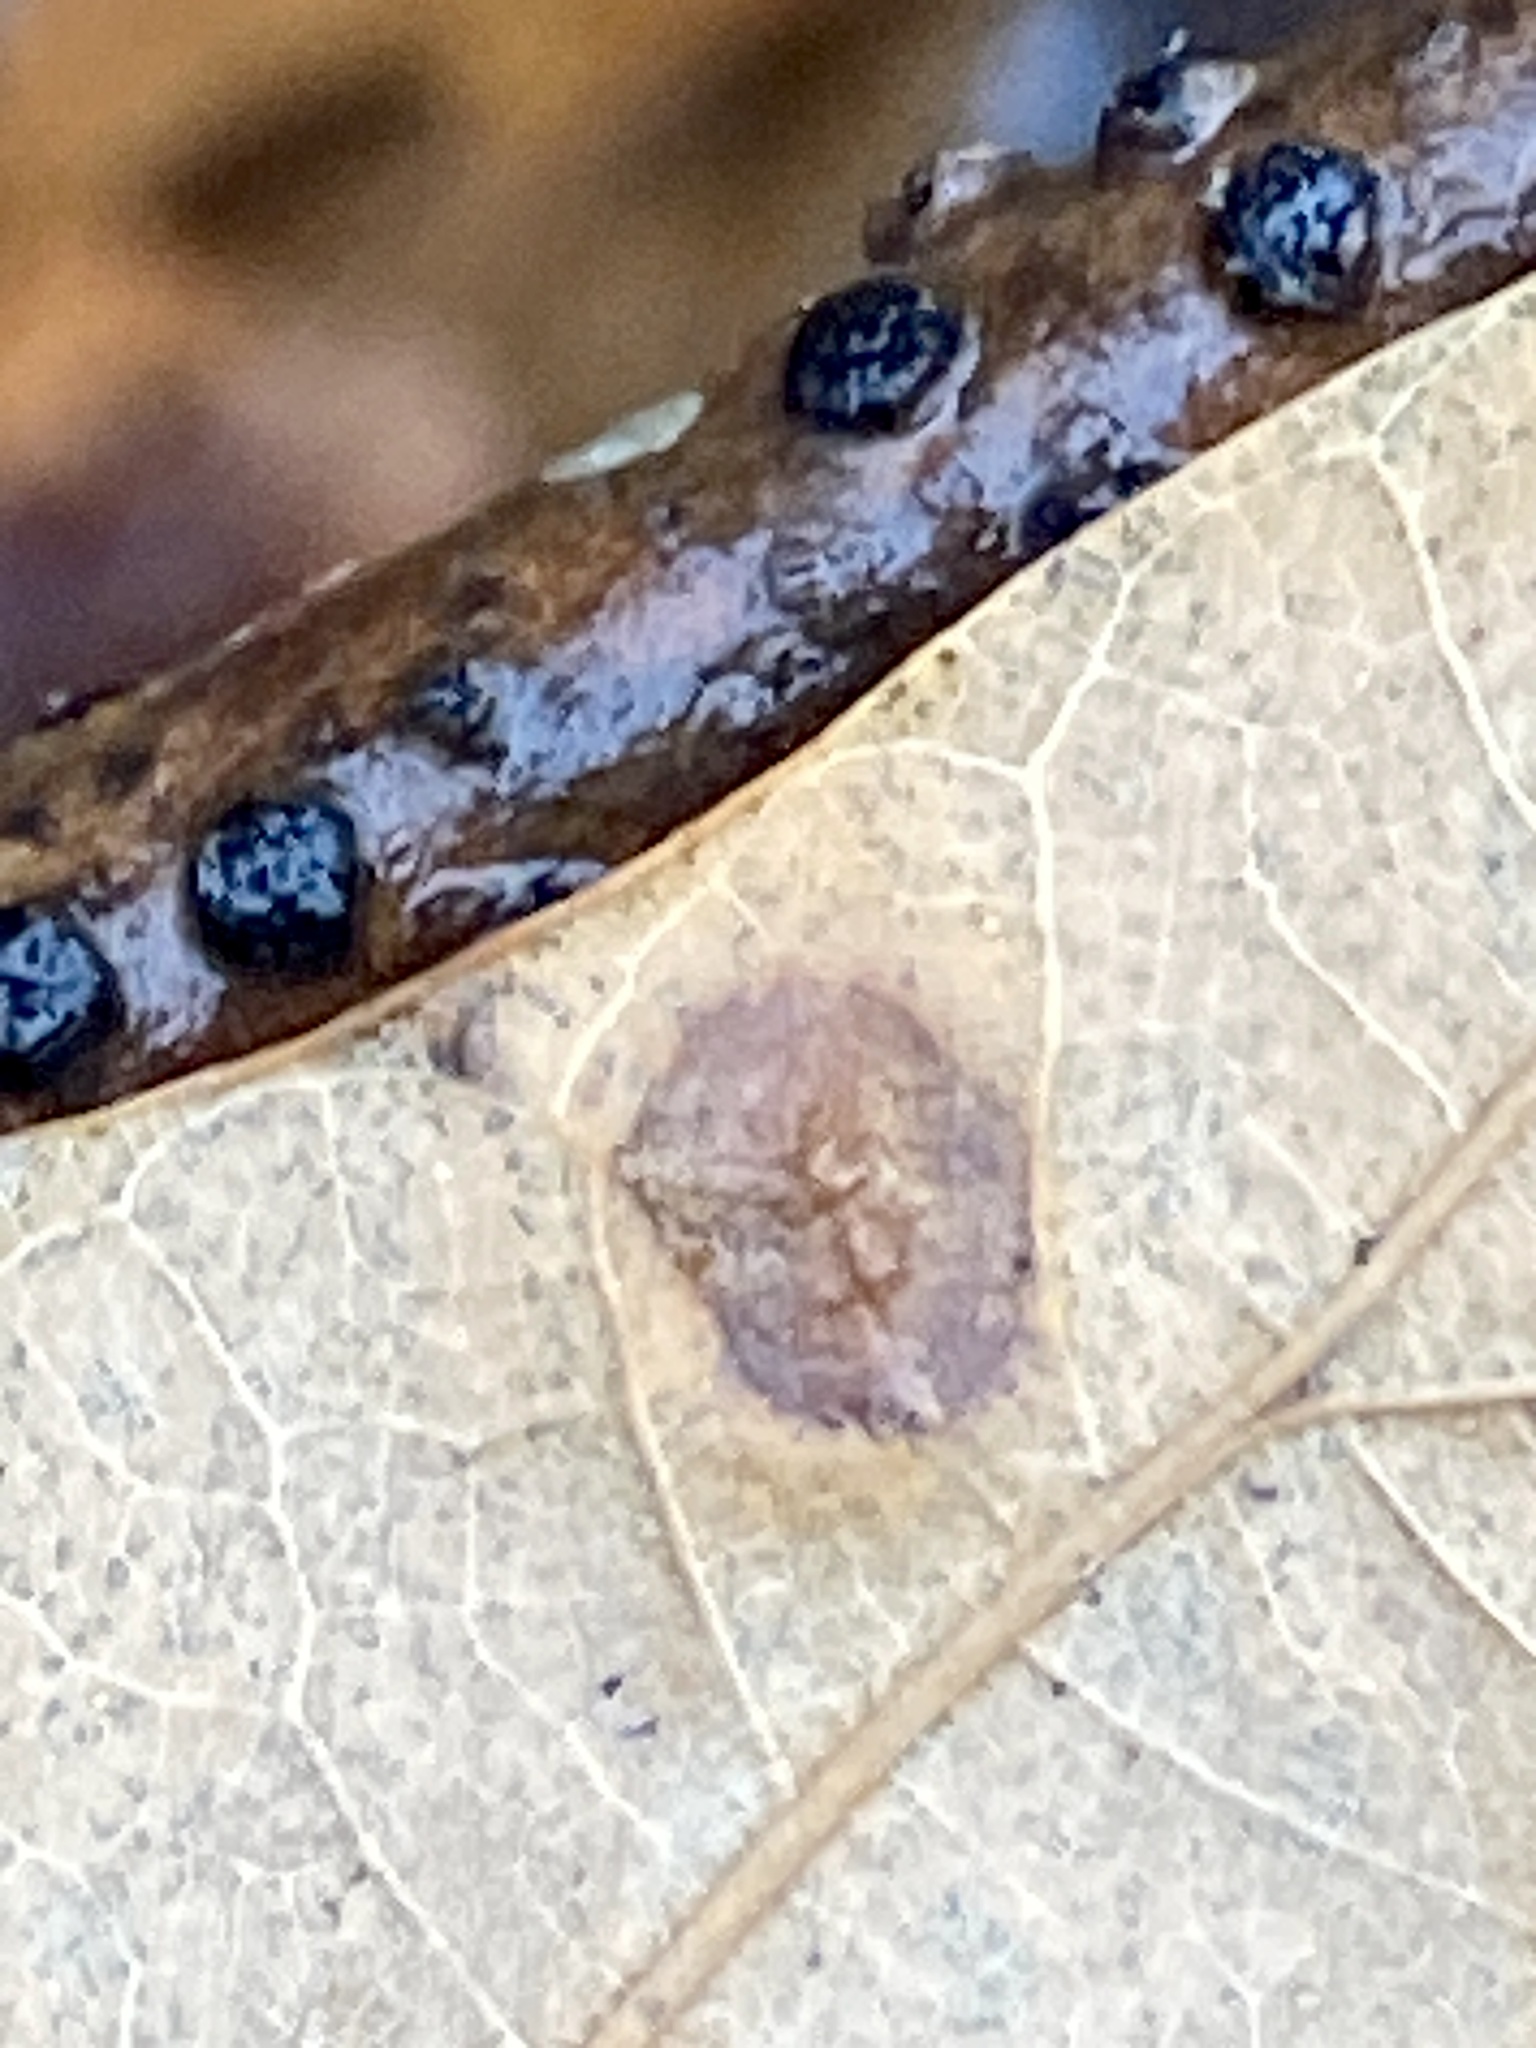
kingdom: Animalia
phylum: Arthropoda
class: Insecta
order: Diptera
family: Cecidomyiidae
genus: Polystepha
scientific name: Polystepha pilulae
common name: Oak leaf gall midge
